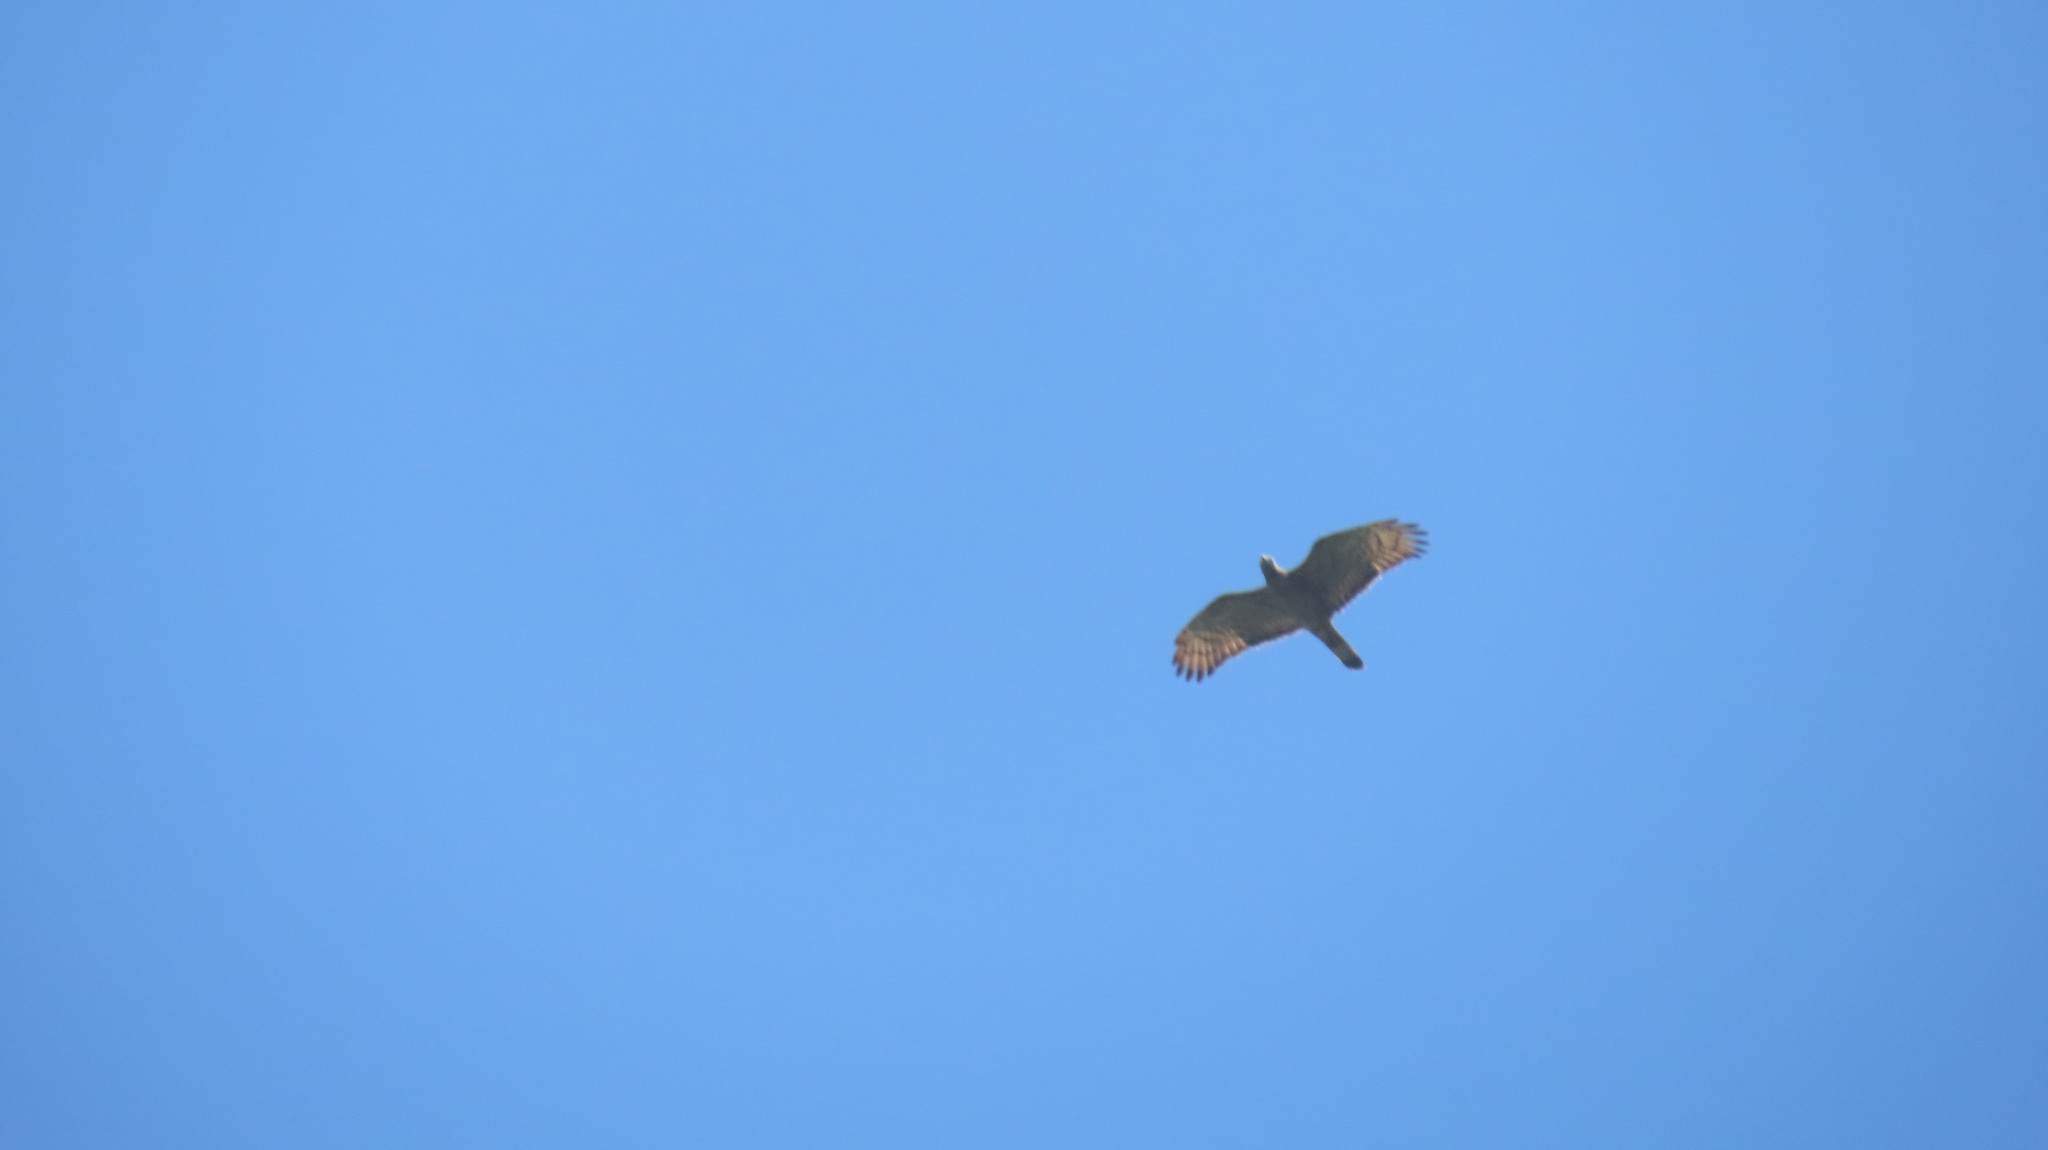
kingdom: Animalia
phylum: Chordata
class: Aves
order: Accipitriformes
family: Accipitridae
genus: Pernis
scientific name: Pernis ptilorhynchus
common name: Crested honey buzzard
